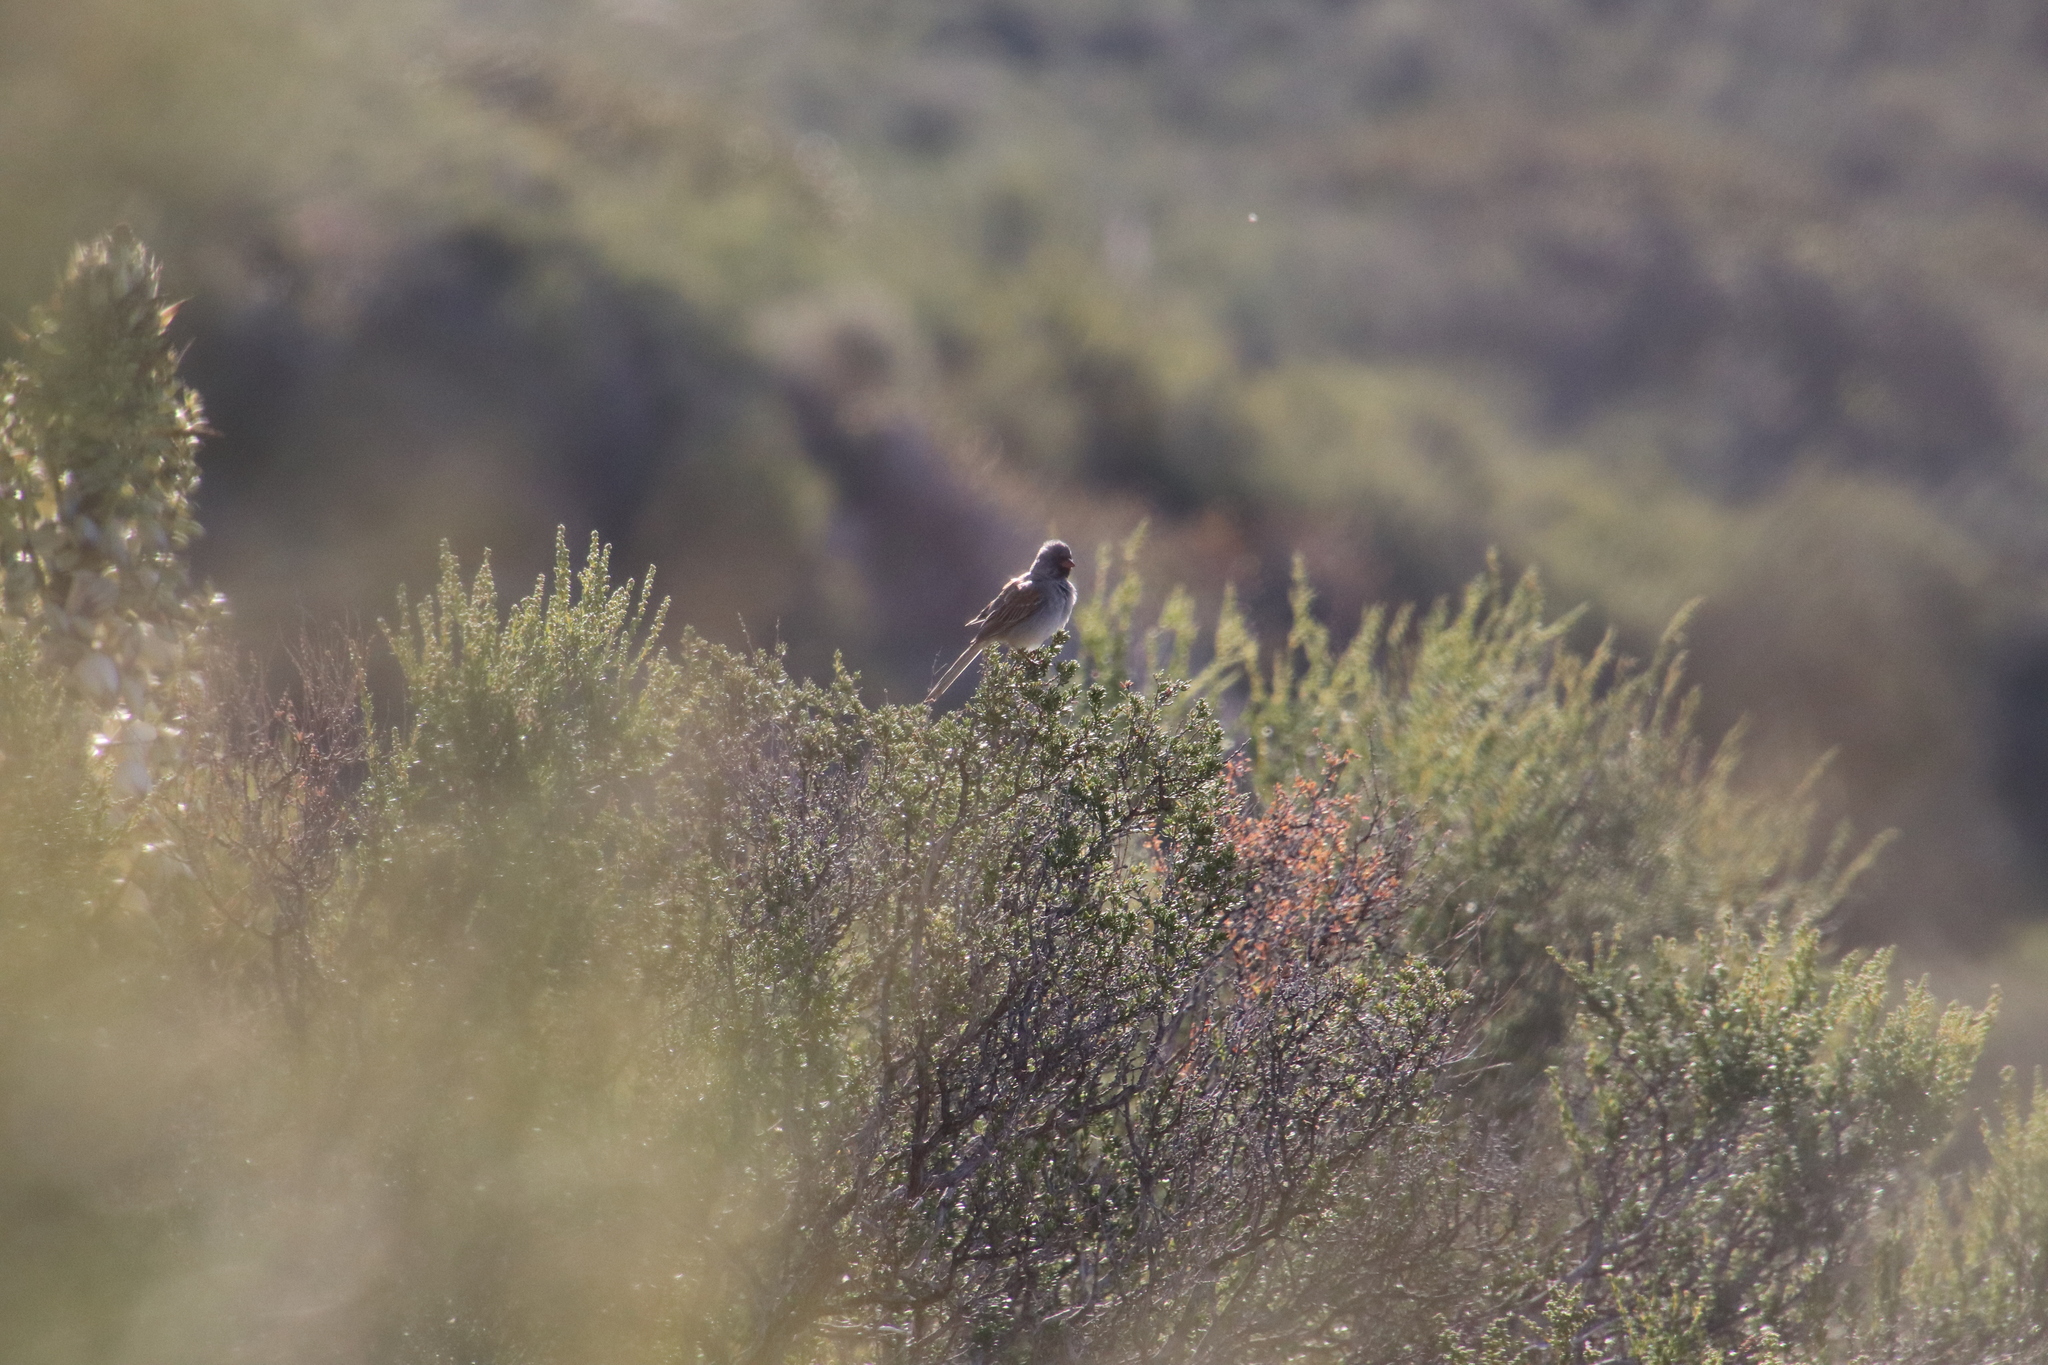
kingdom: Animalia
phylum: Chordata
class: Aves
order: Passeriformes
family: Passerellidae
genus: Spizella
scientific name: Spizella atrogularis
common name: Black-chinned sparrow
